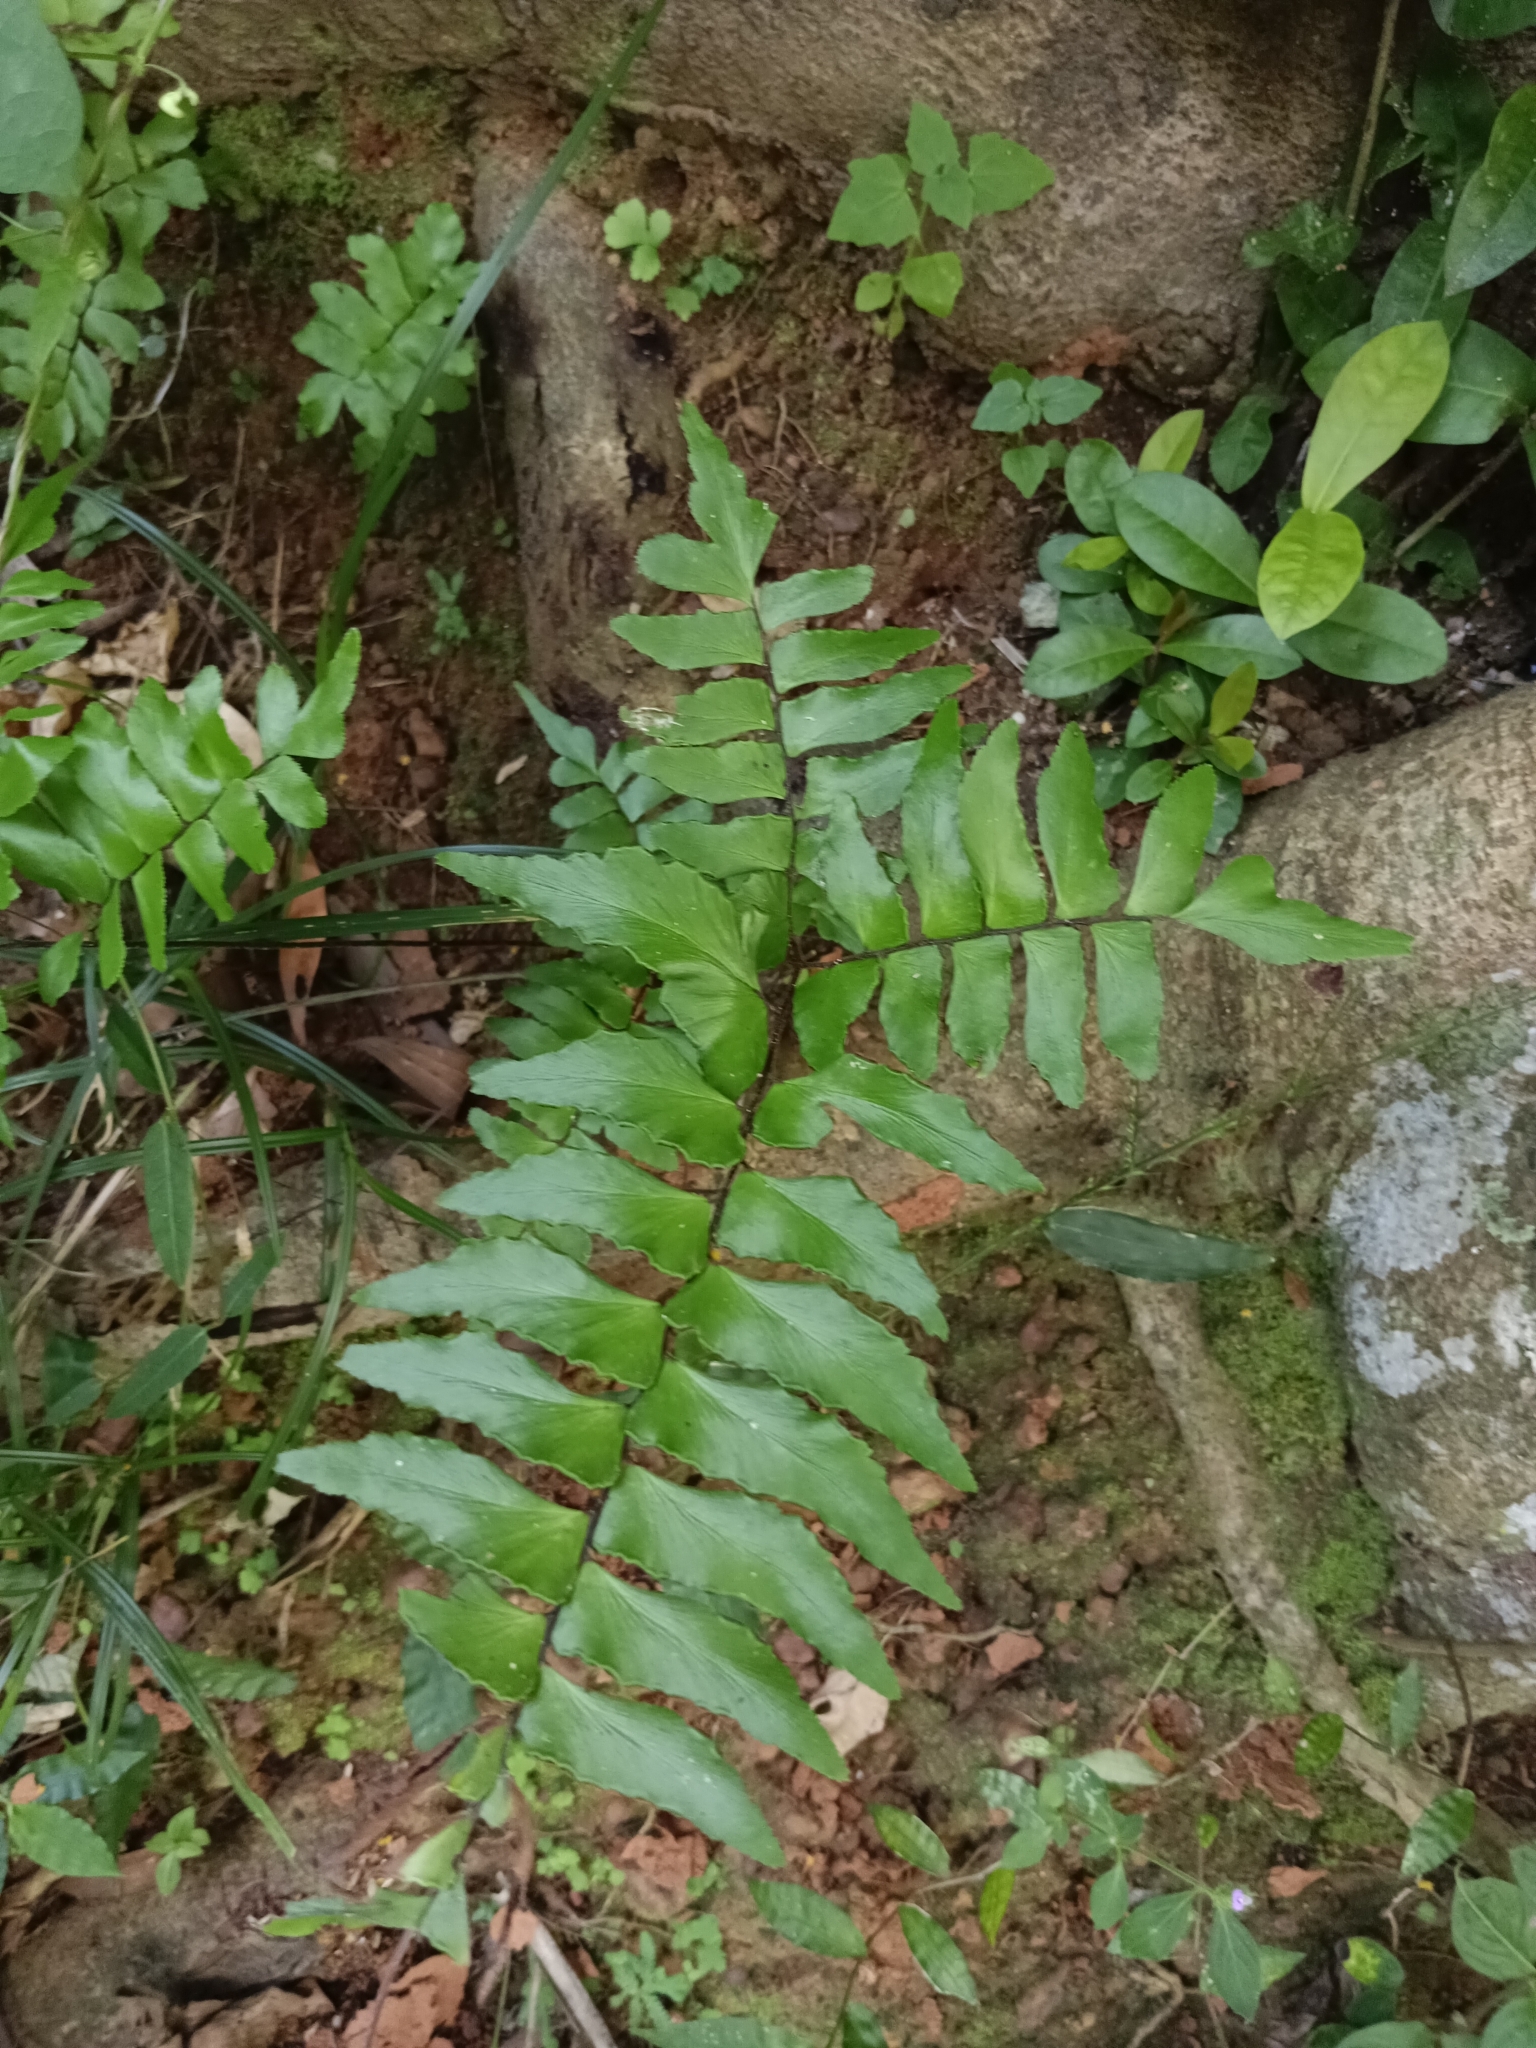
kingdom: Plantae
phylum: Tracheophyta
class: Polypodiopsida
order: Polypodiales
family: Pteridaceae
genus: Adiantum
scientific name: Adiantum latifolium
